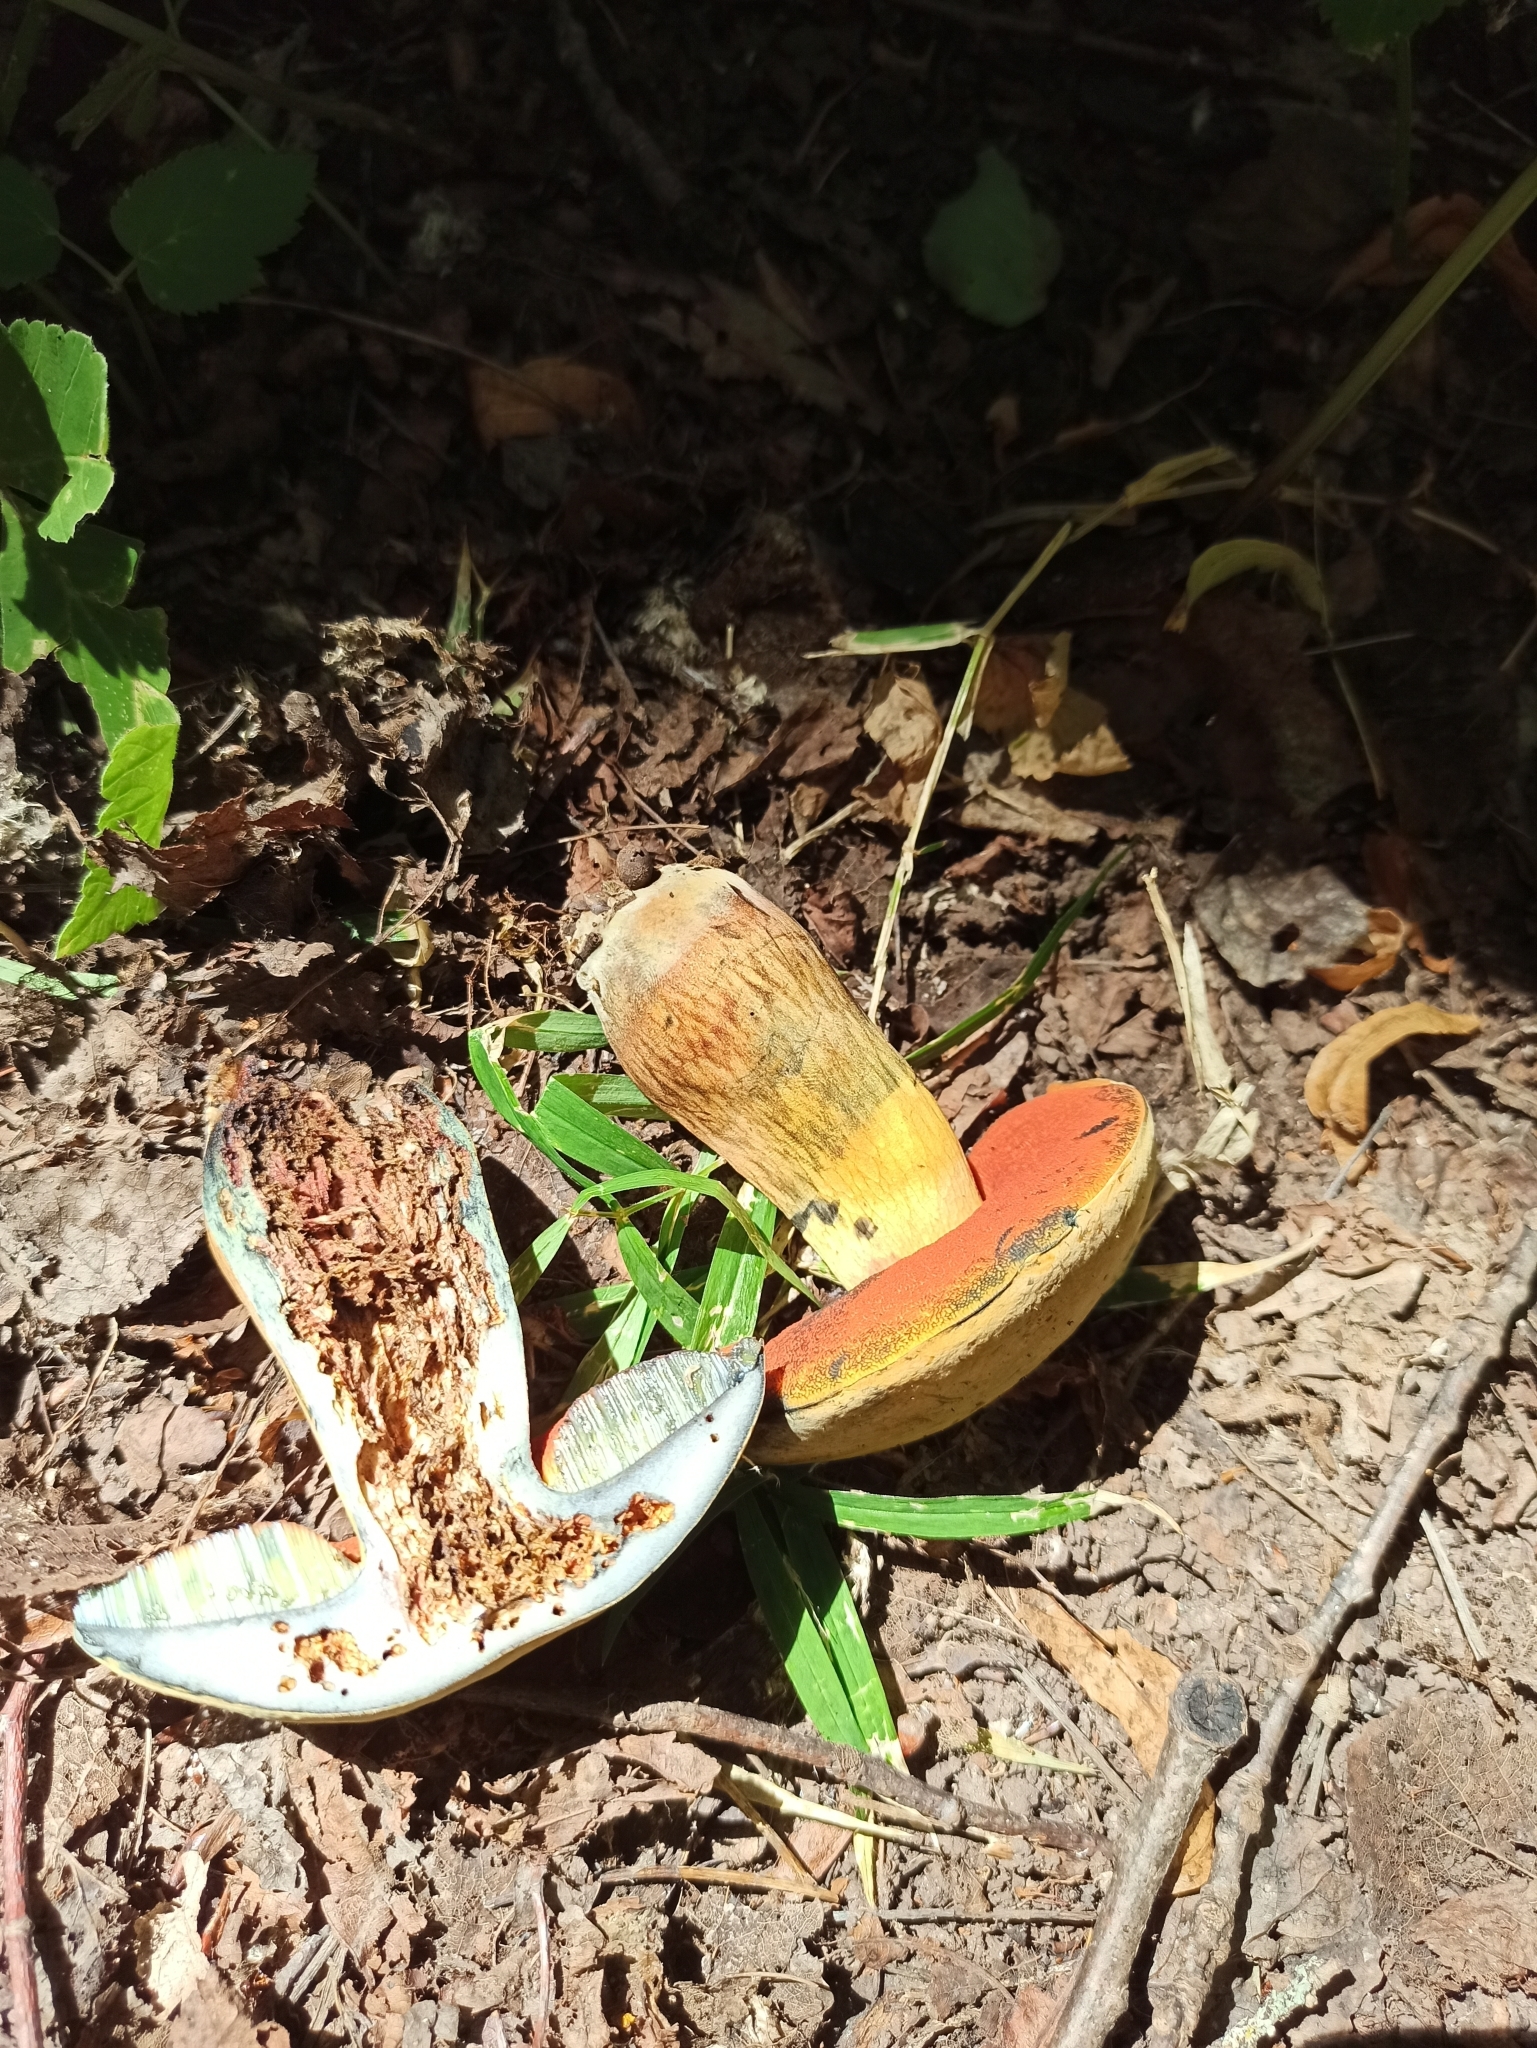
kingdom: Fungi
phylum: Basidiomycota
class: Agaricomycetes
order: Boletales
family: Boletaceae
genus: Suillellus
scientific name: Suillellus luridus
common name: Lurid bolete
